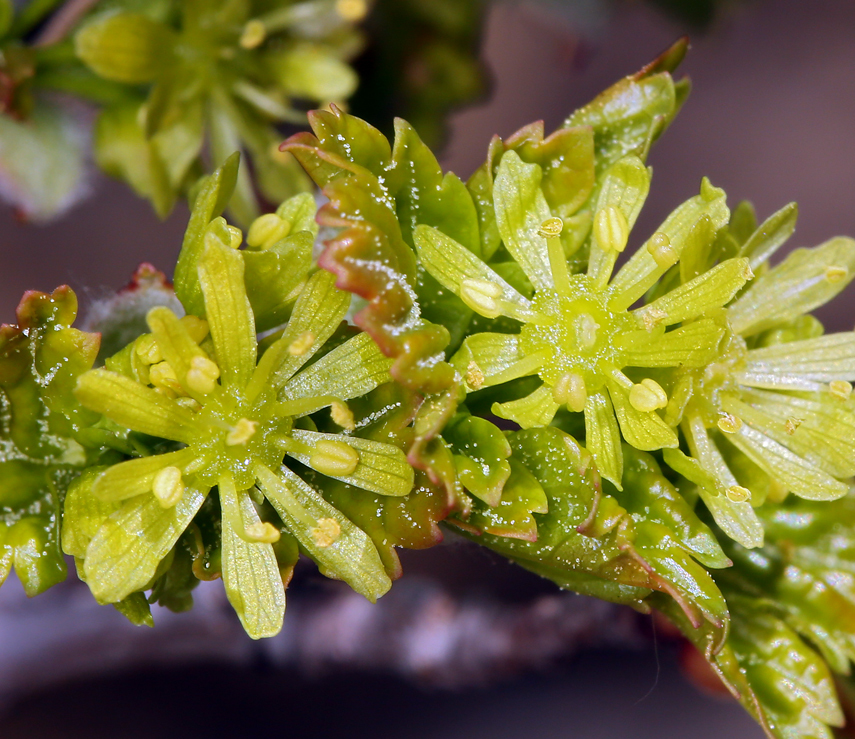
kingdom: Plantae
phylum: Tracheophyta
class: Magnoliopsida
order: Sapindales
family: Sapindaceae
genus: Acer
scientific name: Acer glabrum
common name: Rocky mountain maple
